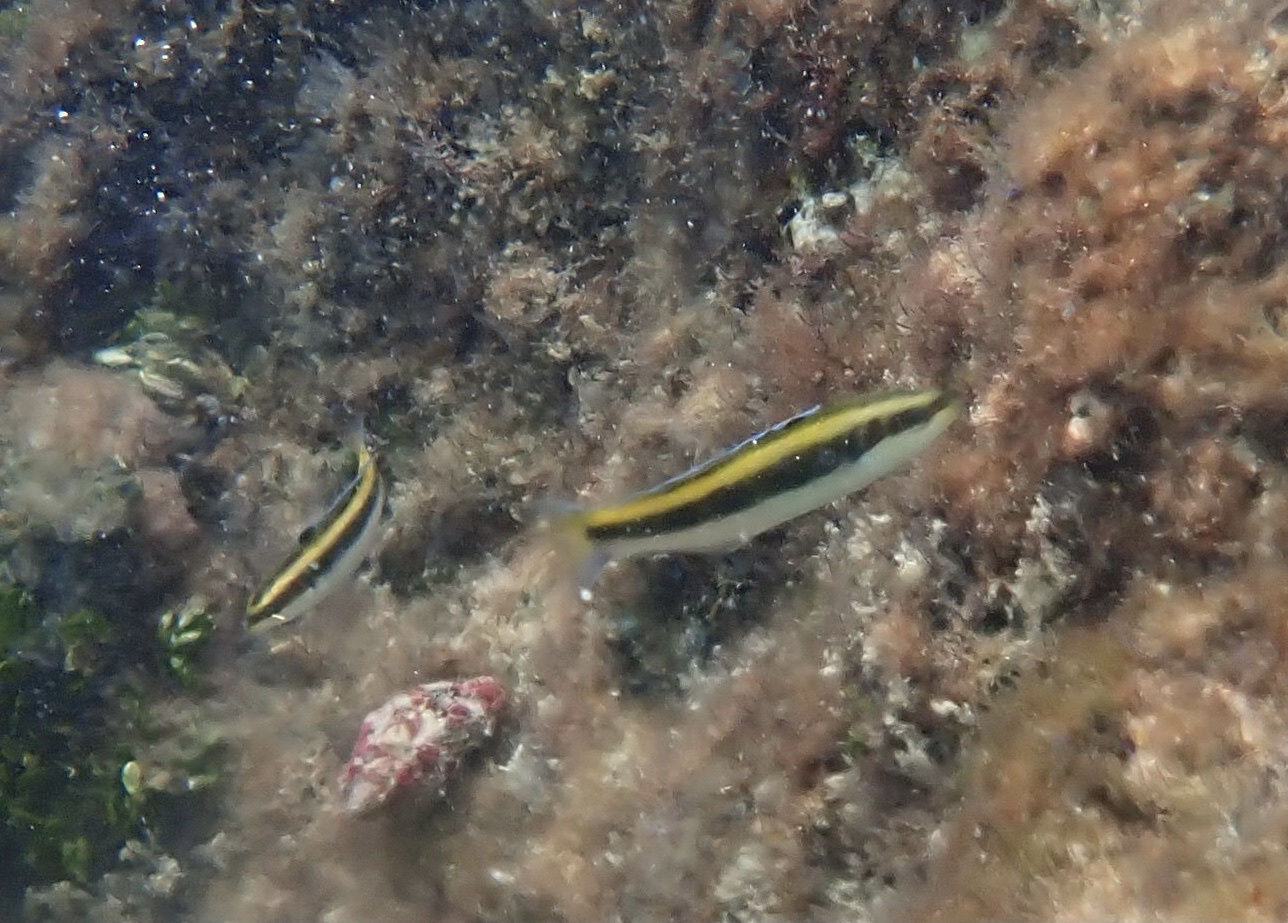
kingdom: Animalia
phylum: Chordata
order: Perciformes
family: Labridae
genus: Thalassoma
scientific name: Thalassoma bifasciatum
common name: Bluehead wrasse
